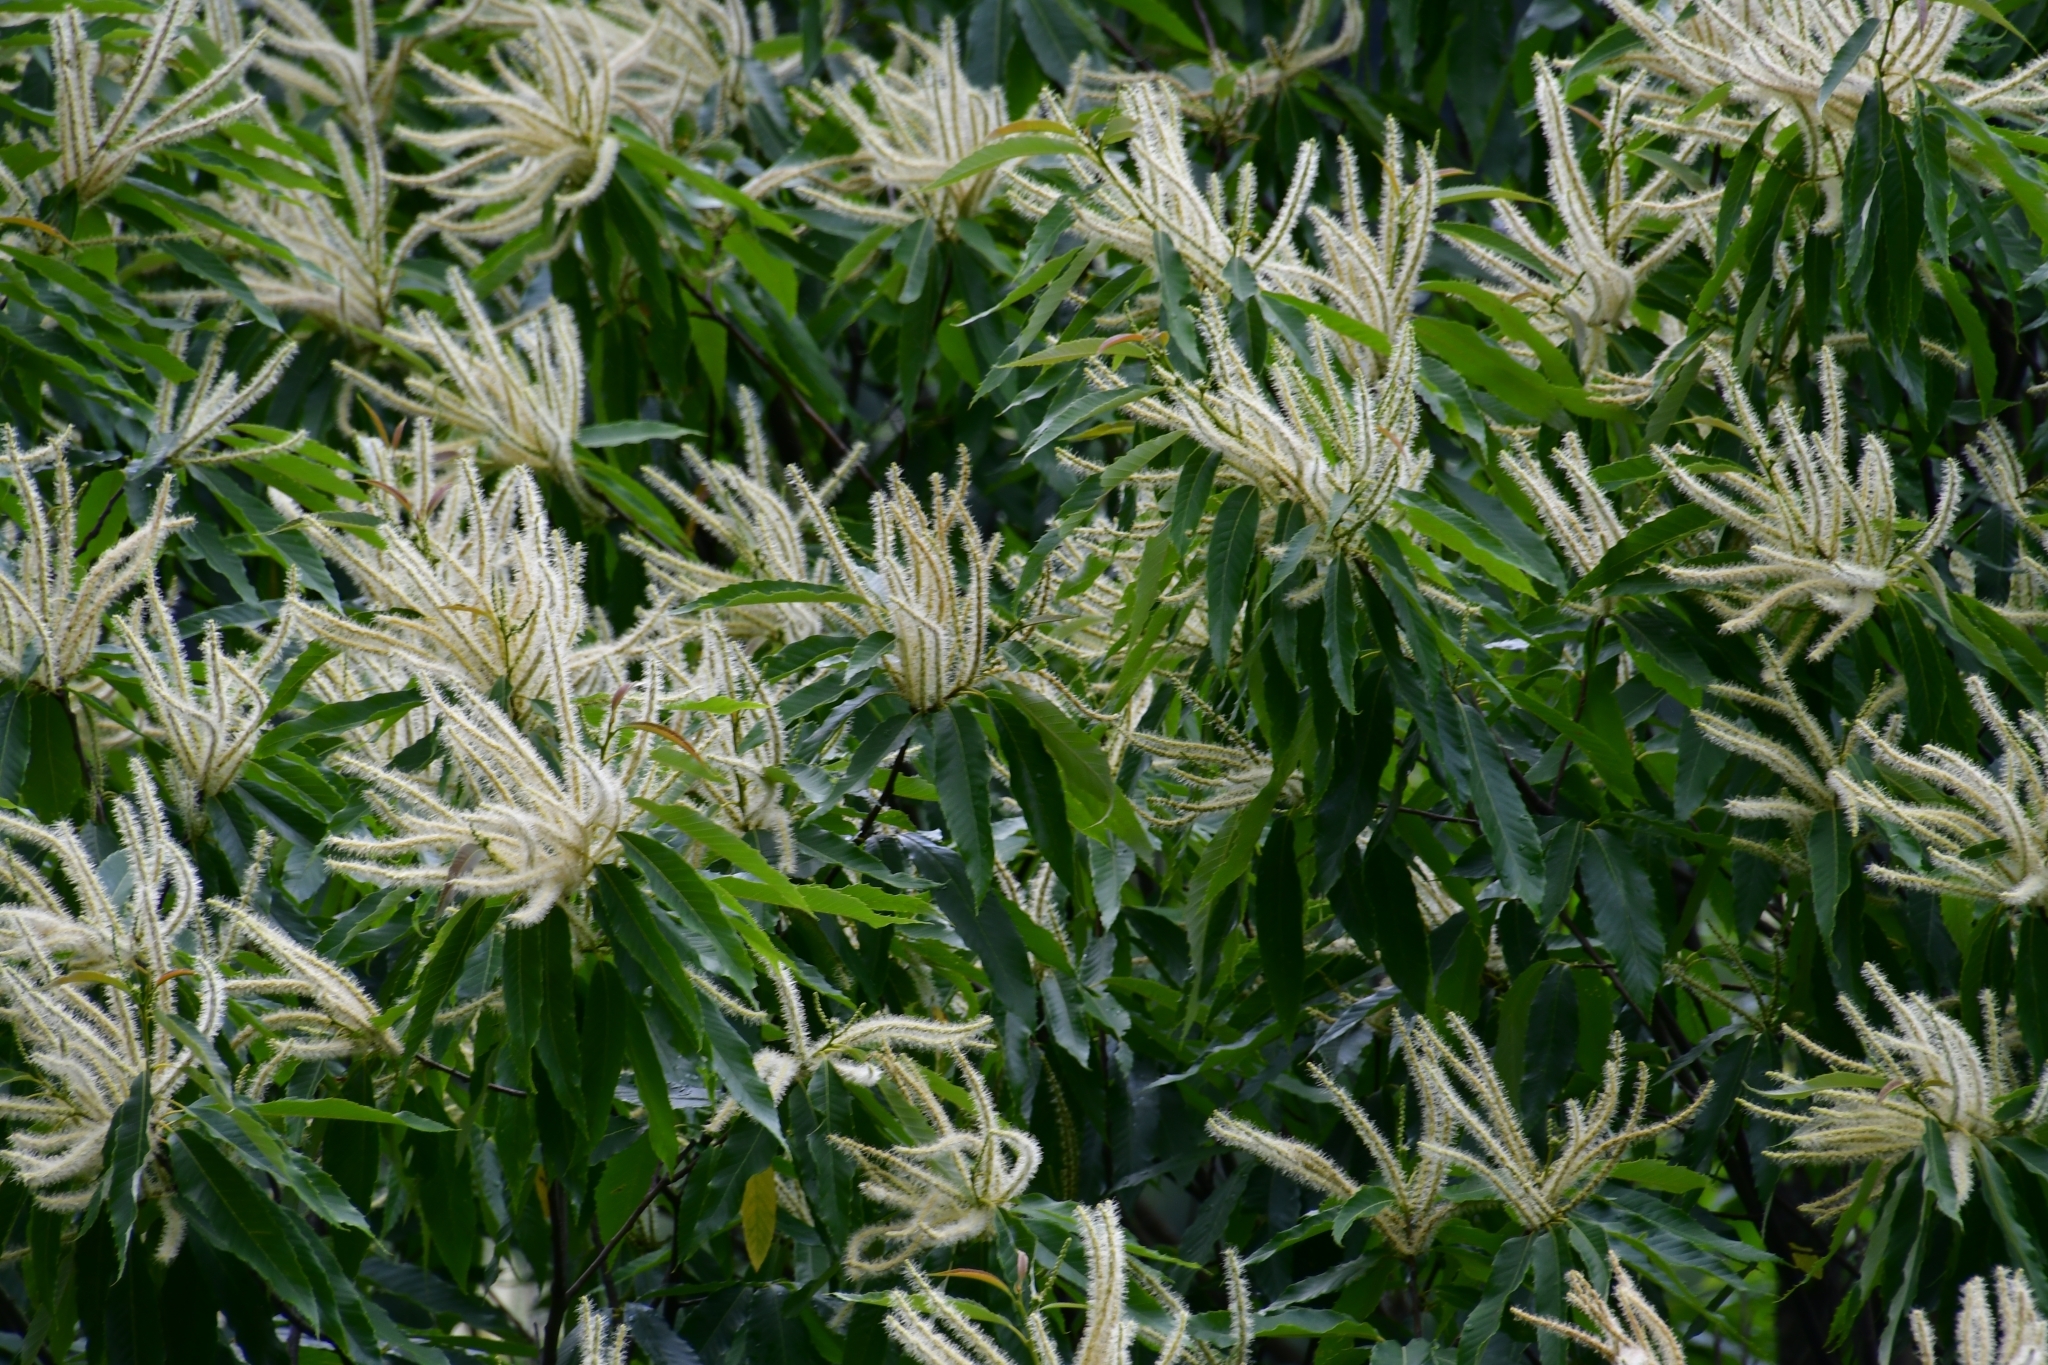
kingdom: Plantae
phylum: Tracheophyta
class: Magnoliopsida
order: Fagales
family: Fagaceae
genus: Castanea
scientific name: Castanea sativa
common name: Sweet chestnut
